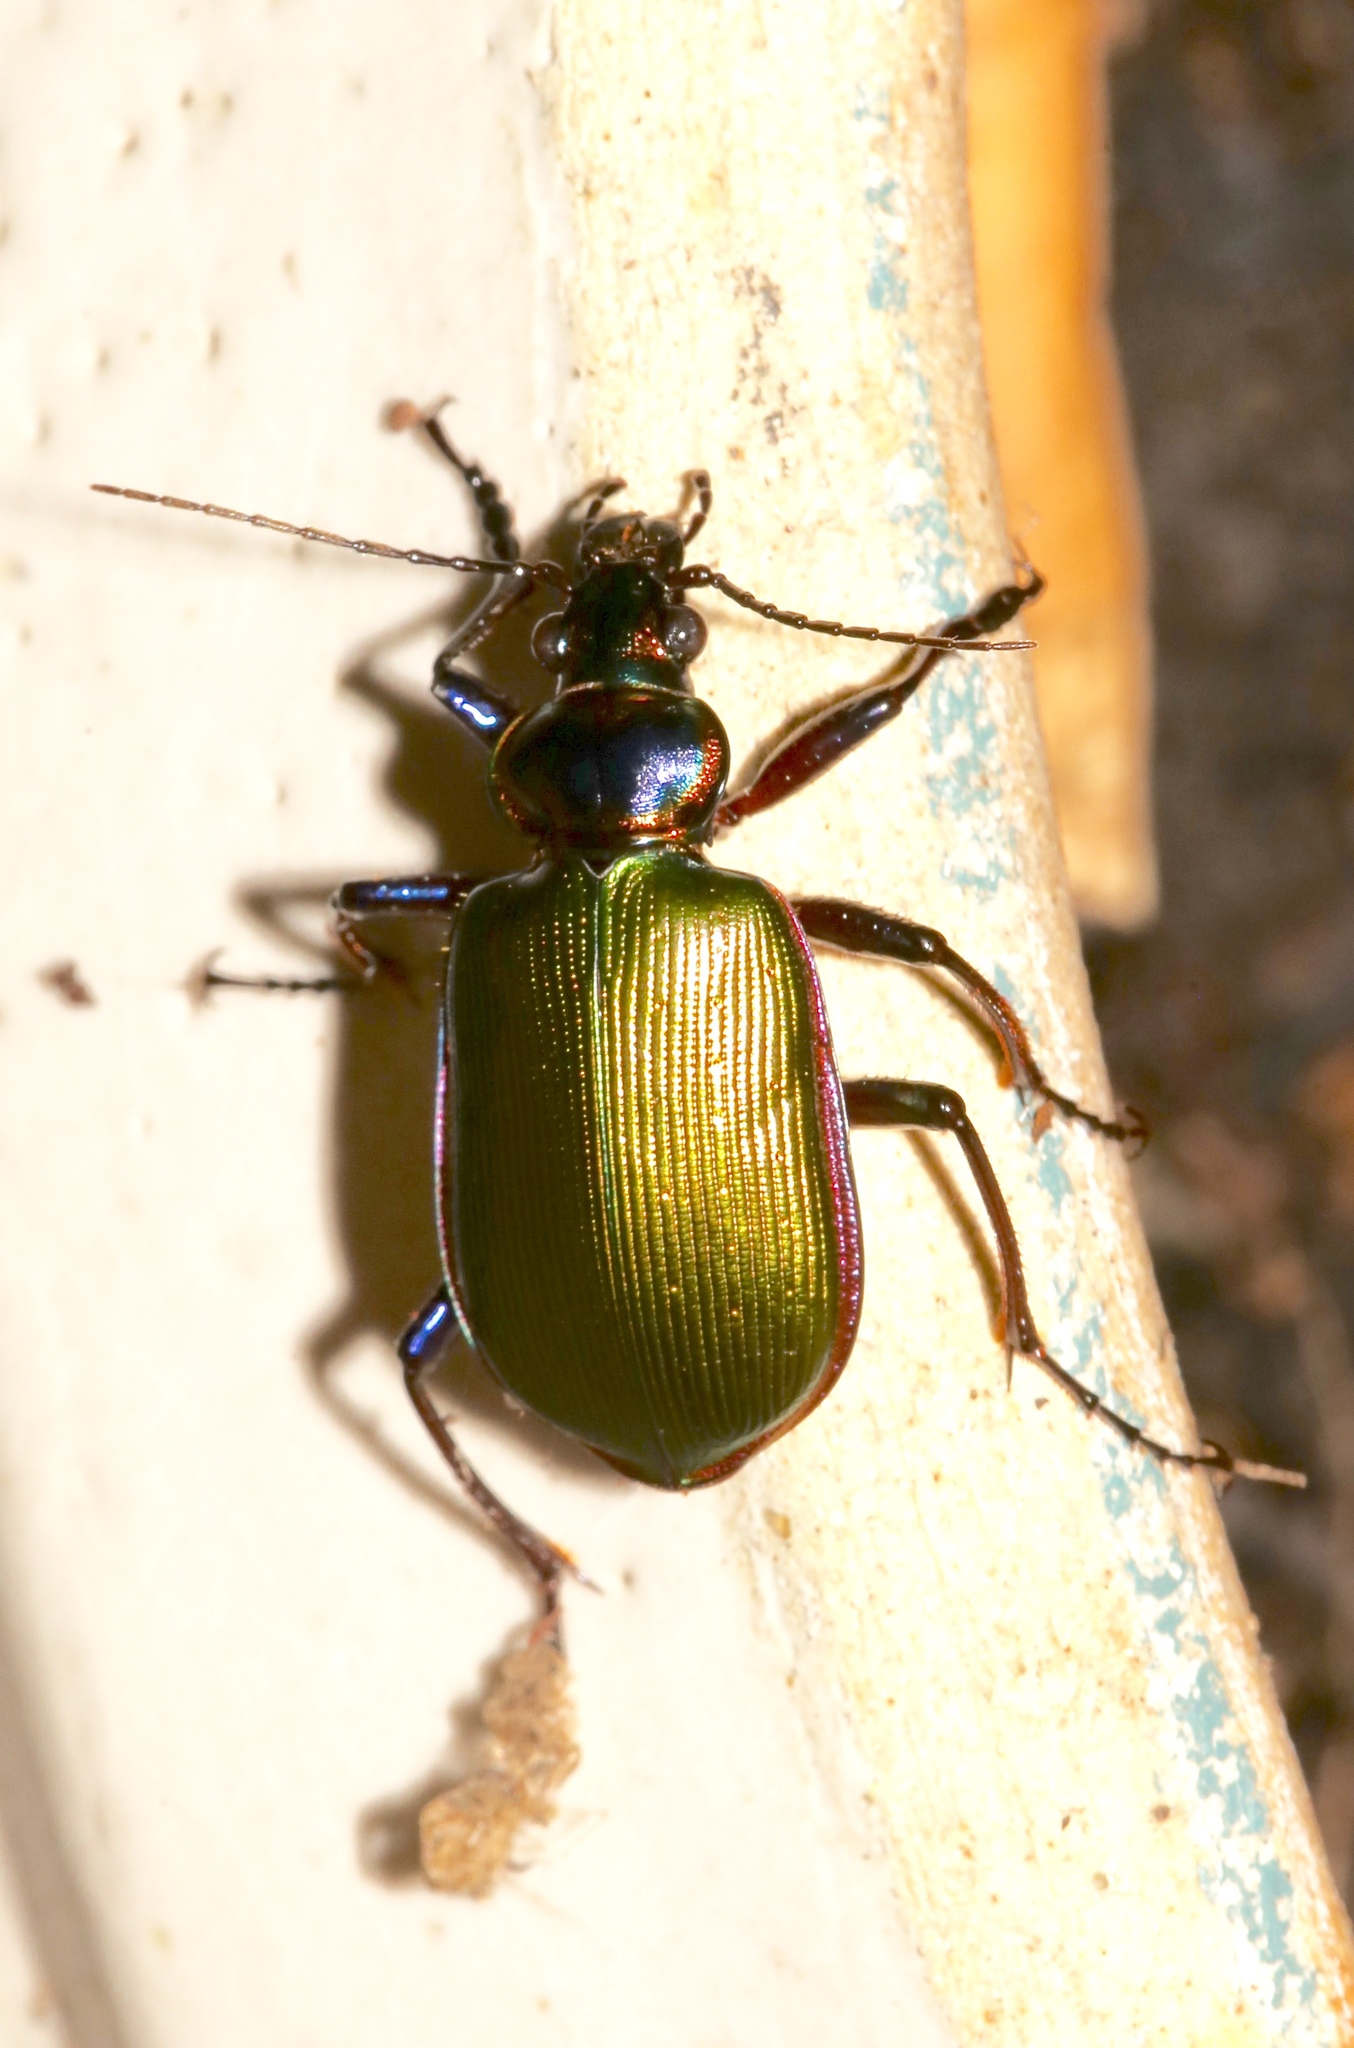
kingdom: Animalia
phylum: Arthropoda
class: Insecta
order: Coleoptera
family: Carabidae
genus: Calosoma
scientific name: Calosoma scrutator
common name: Fiery searcher beetle
